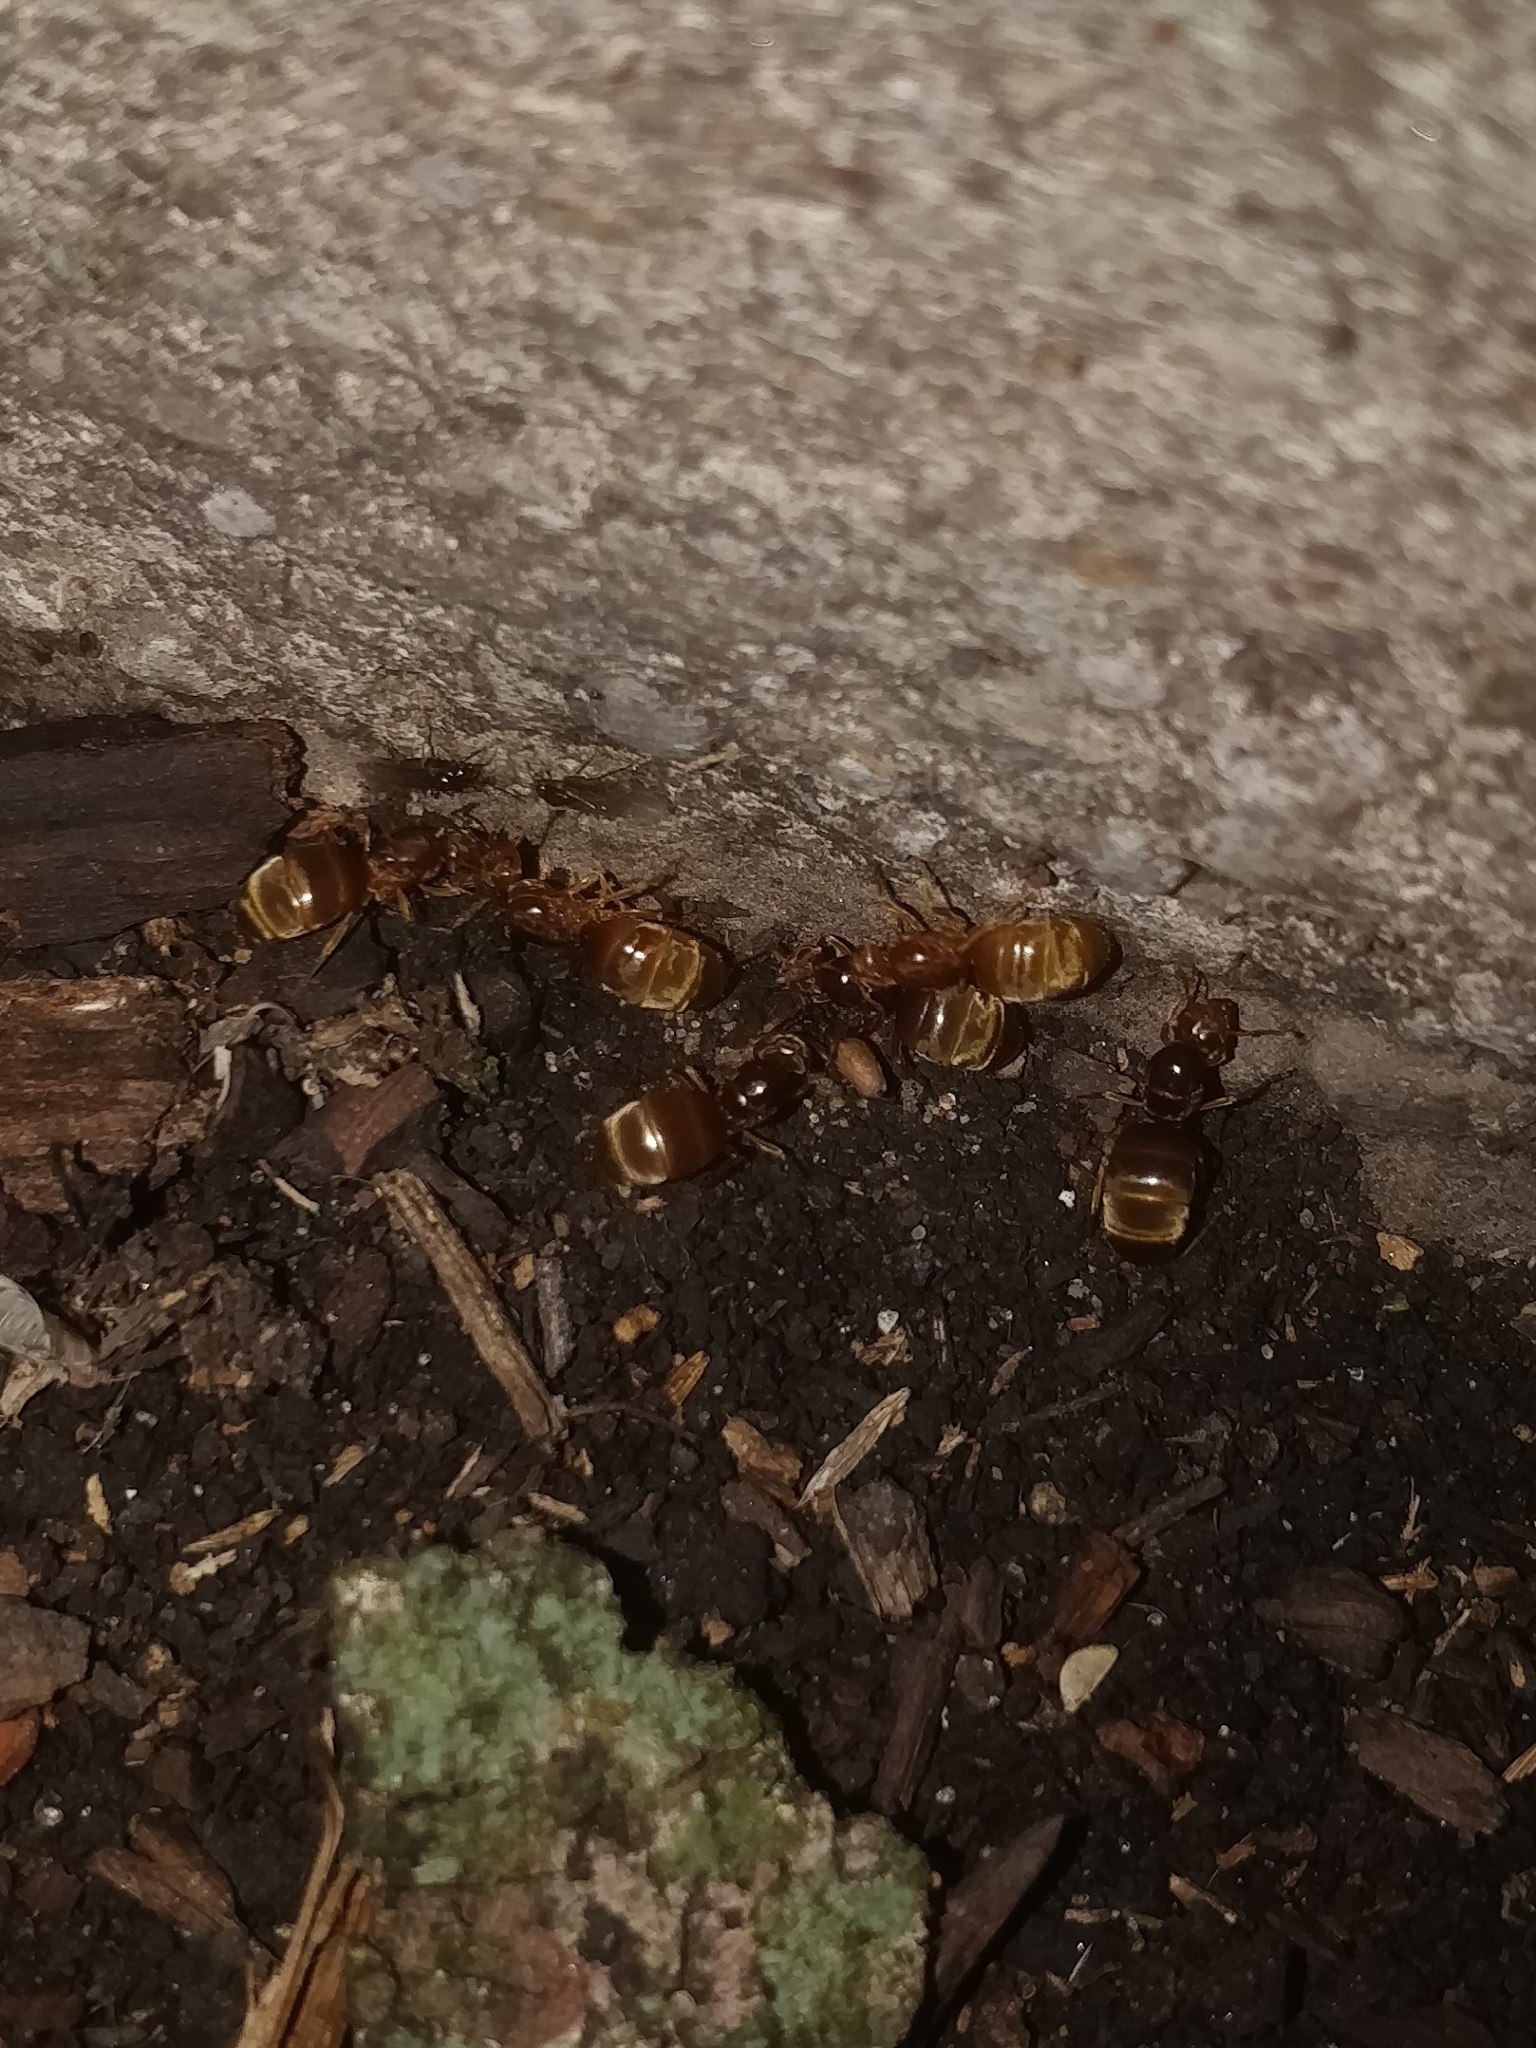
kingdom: Animalia
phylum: Arthropoda
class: Insecta
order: Hymenoptera
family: Formicidae
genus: Lasius
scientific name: Lasius
